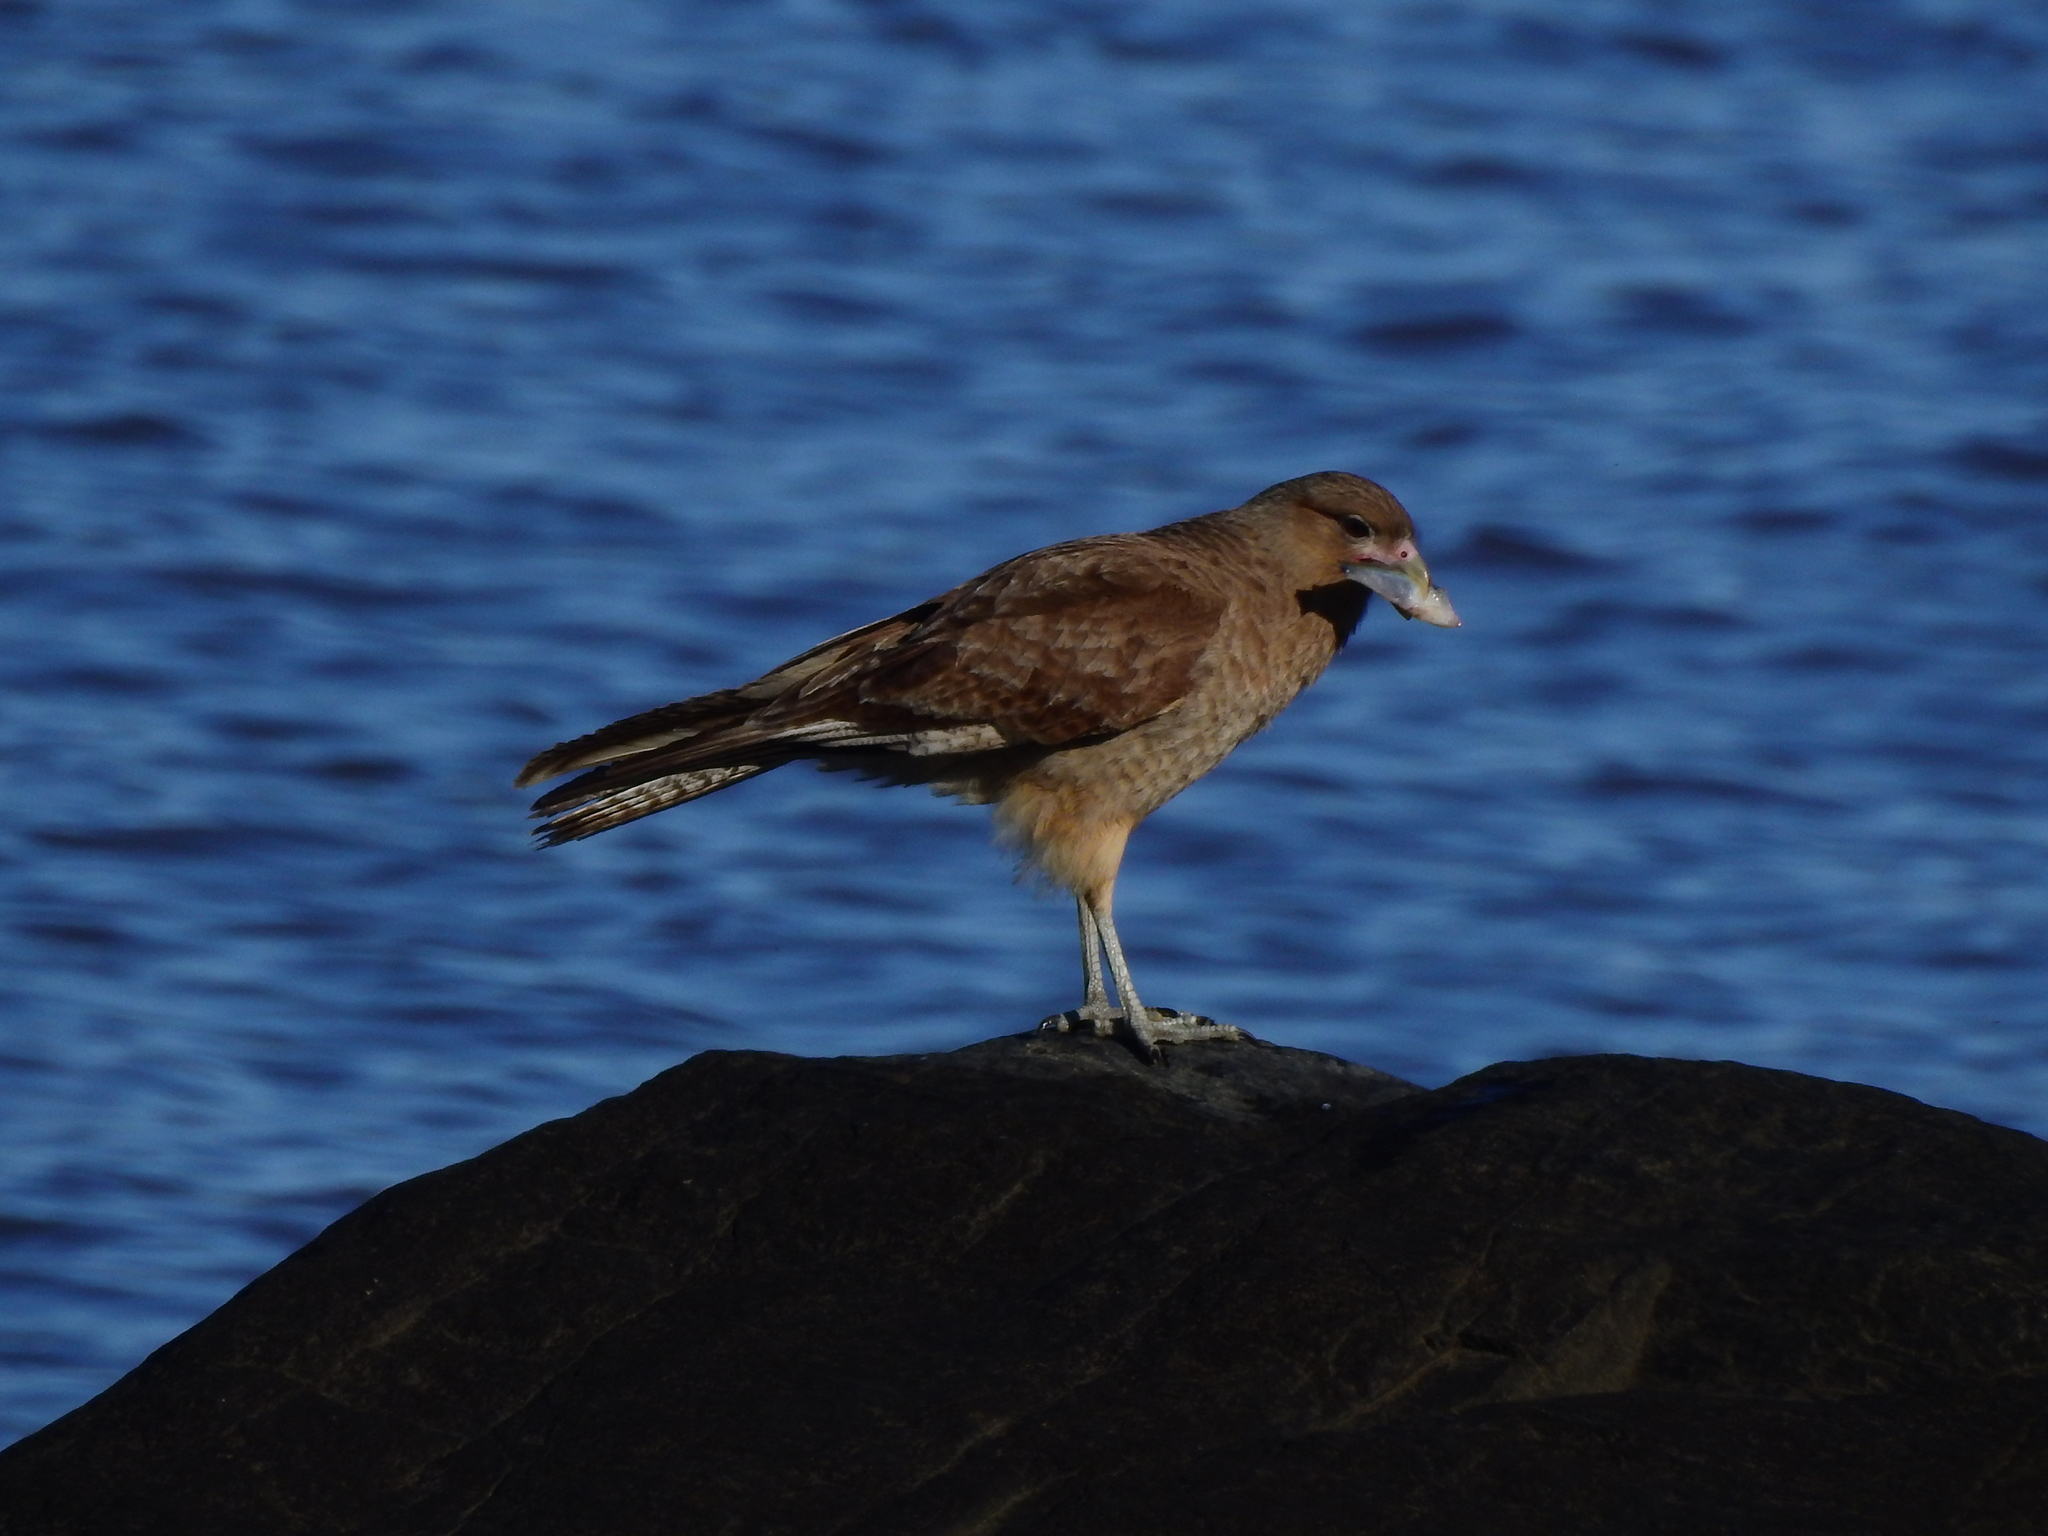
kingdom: Animalia
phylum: Chordata
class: Aves
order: Falconiformes
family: Falconidae
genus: Daptrius
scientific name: Daptrius
